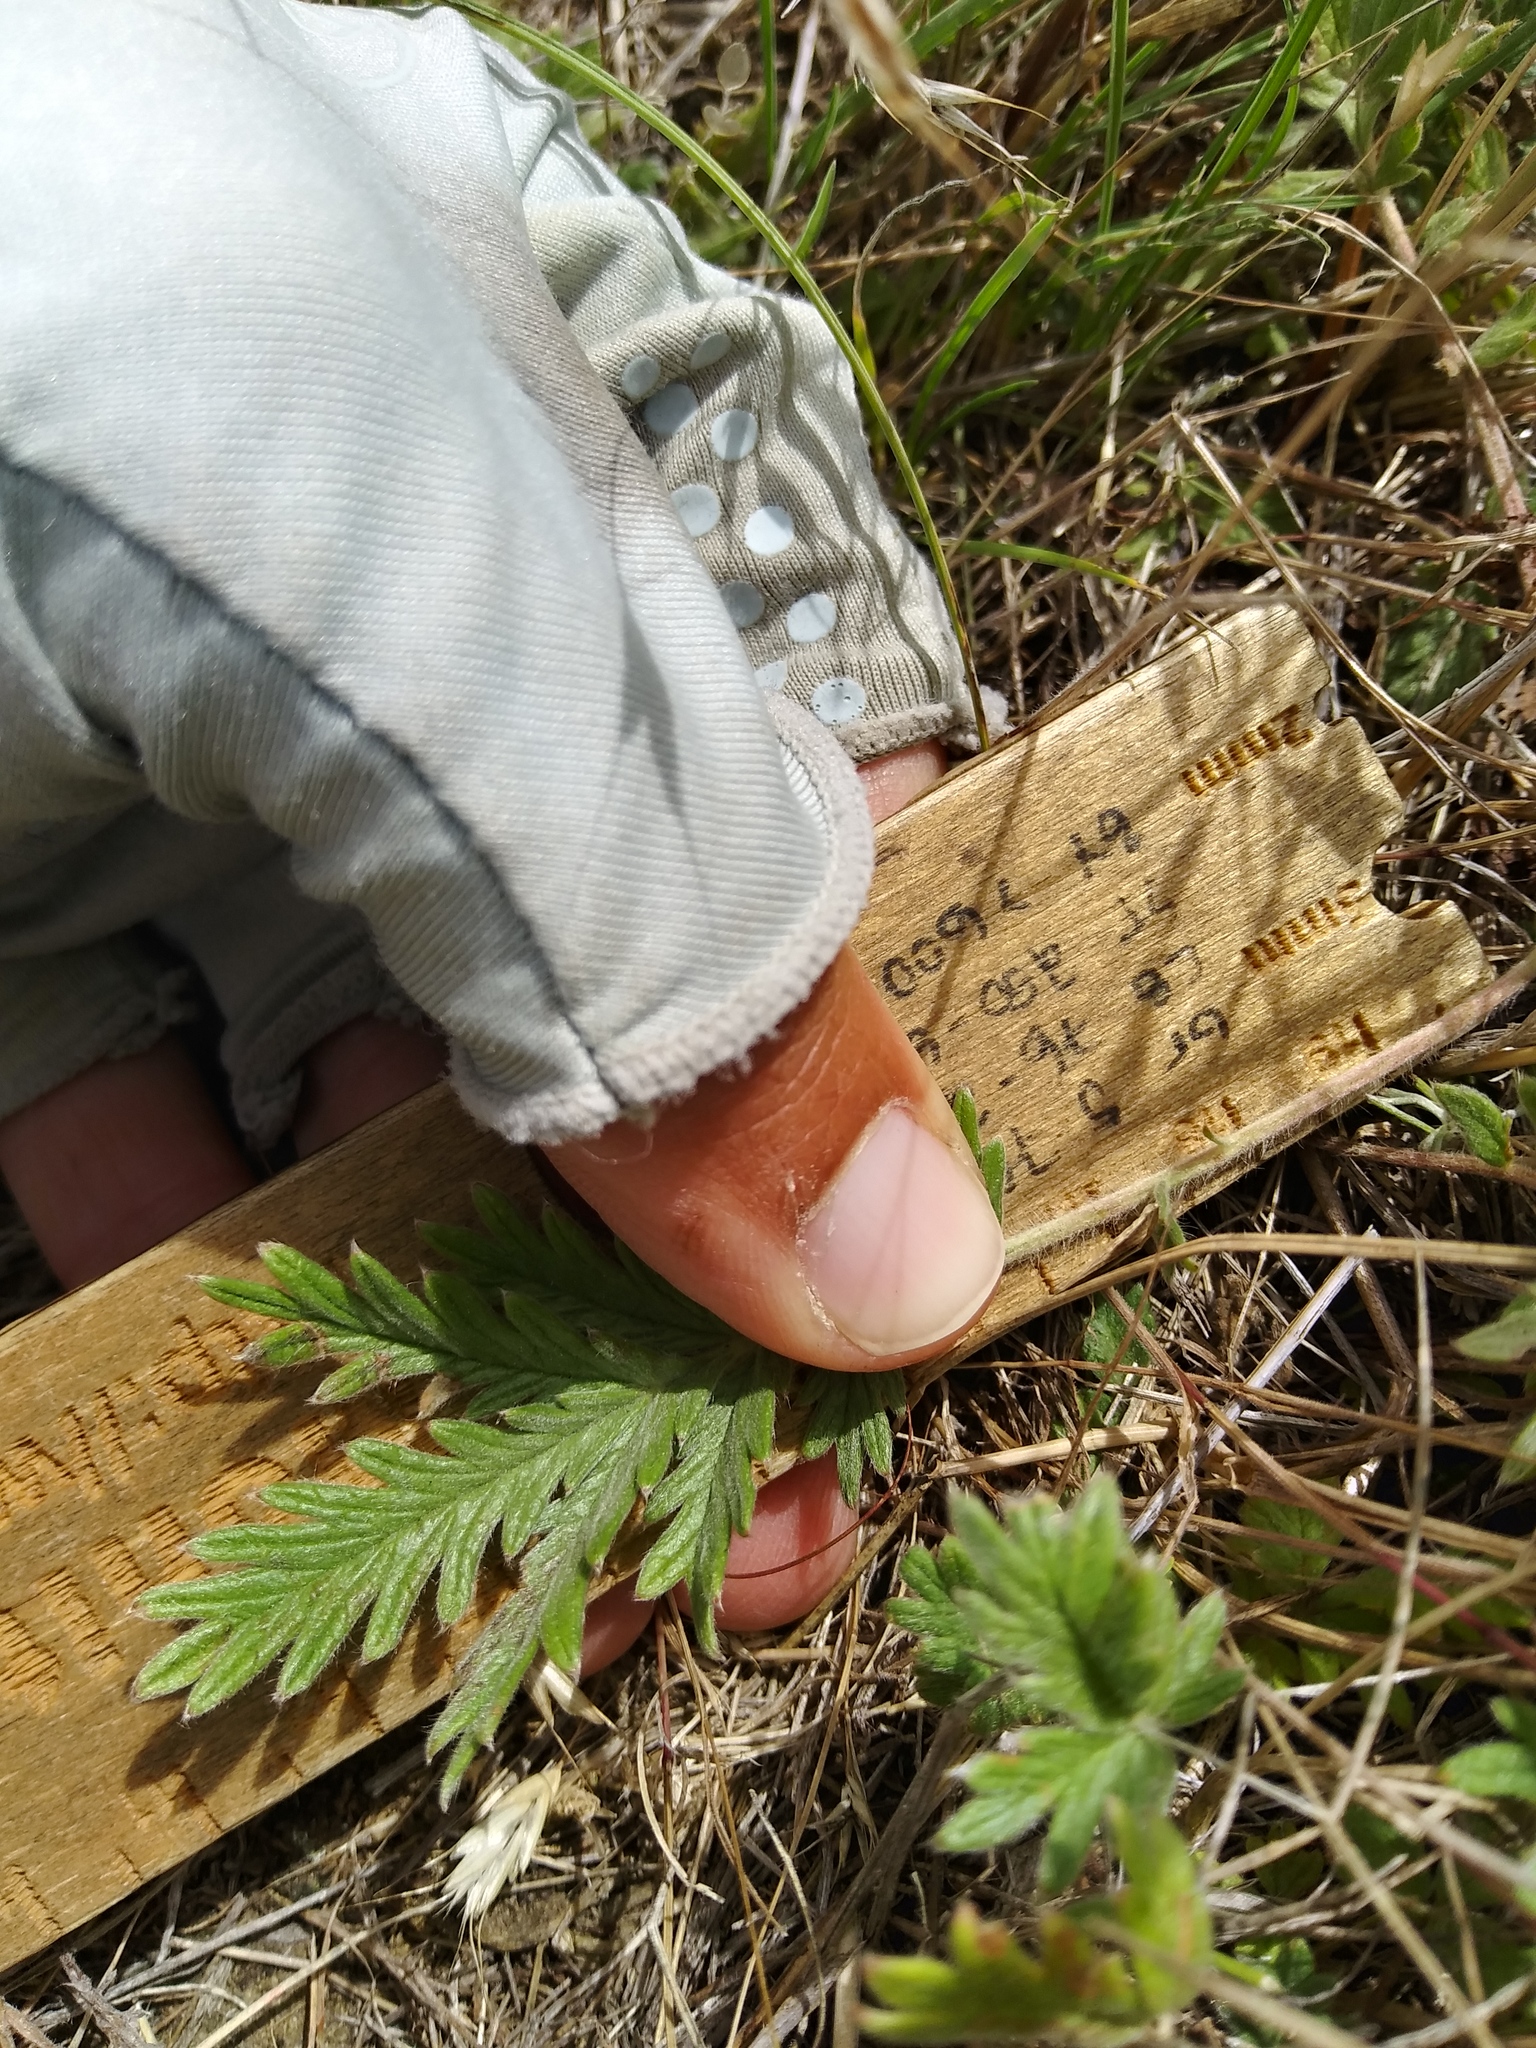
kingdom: Plantae
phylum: Tracheophyta
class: Magnoliopsida
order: Rosales
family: Rosaceae
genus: Potentilla
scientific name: Potentilla pensylvanica
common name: Pennsylvania cinquefoil
